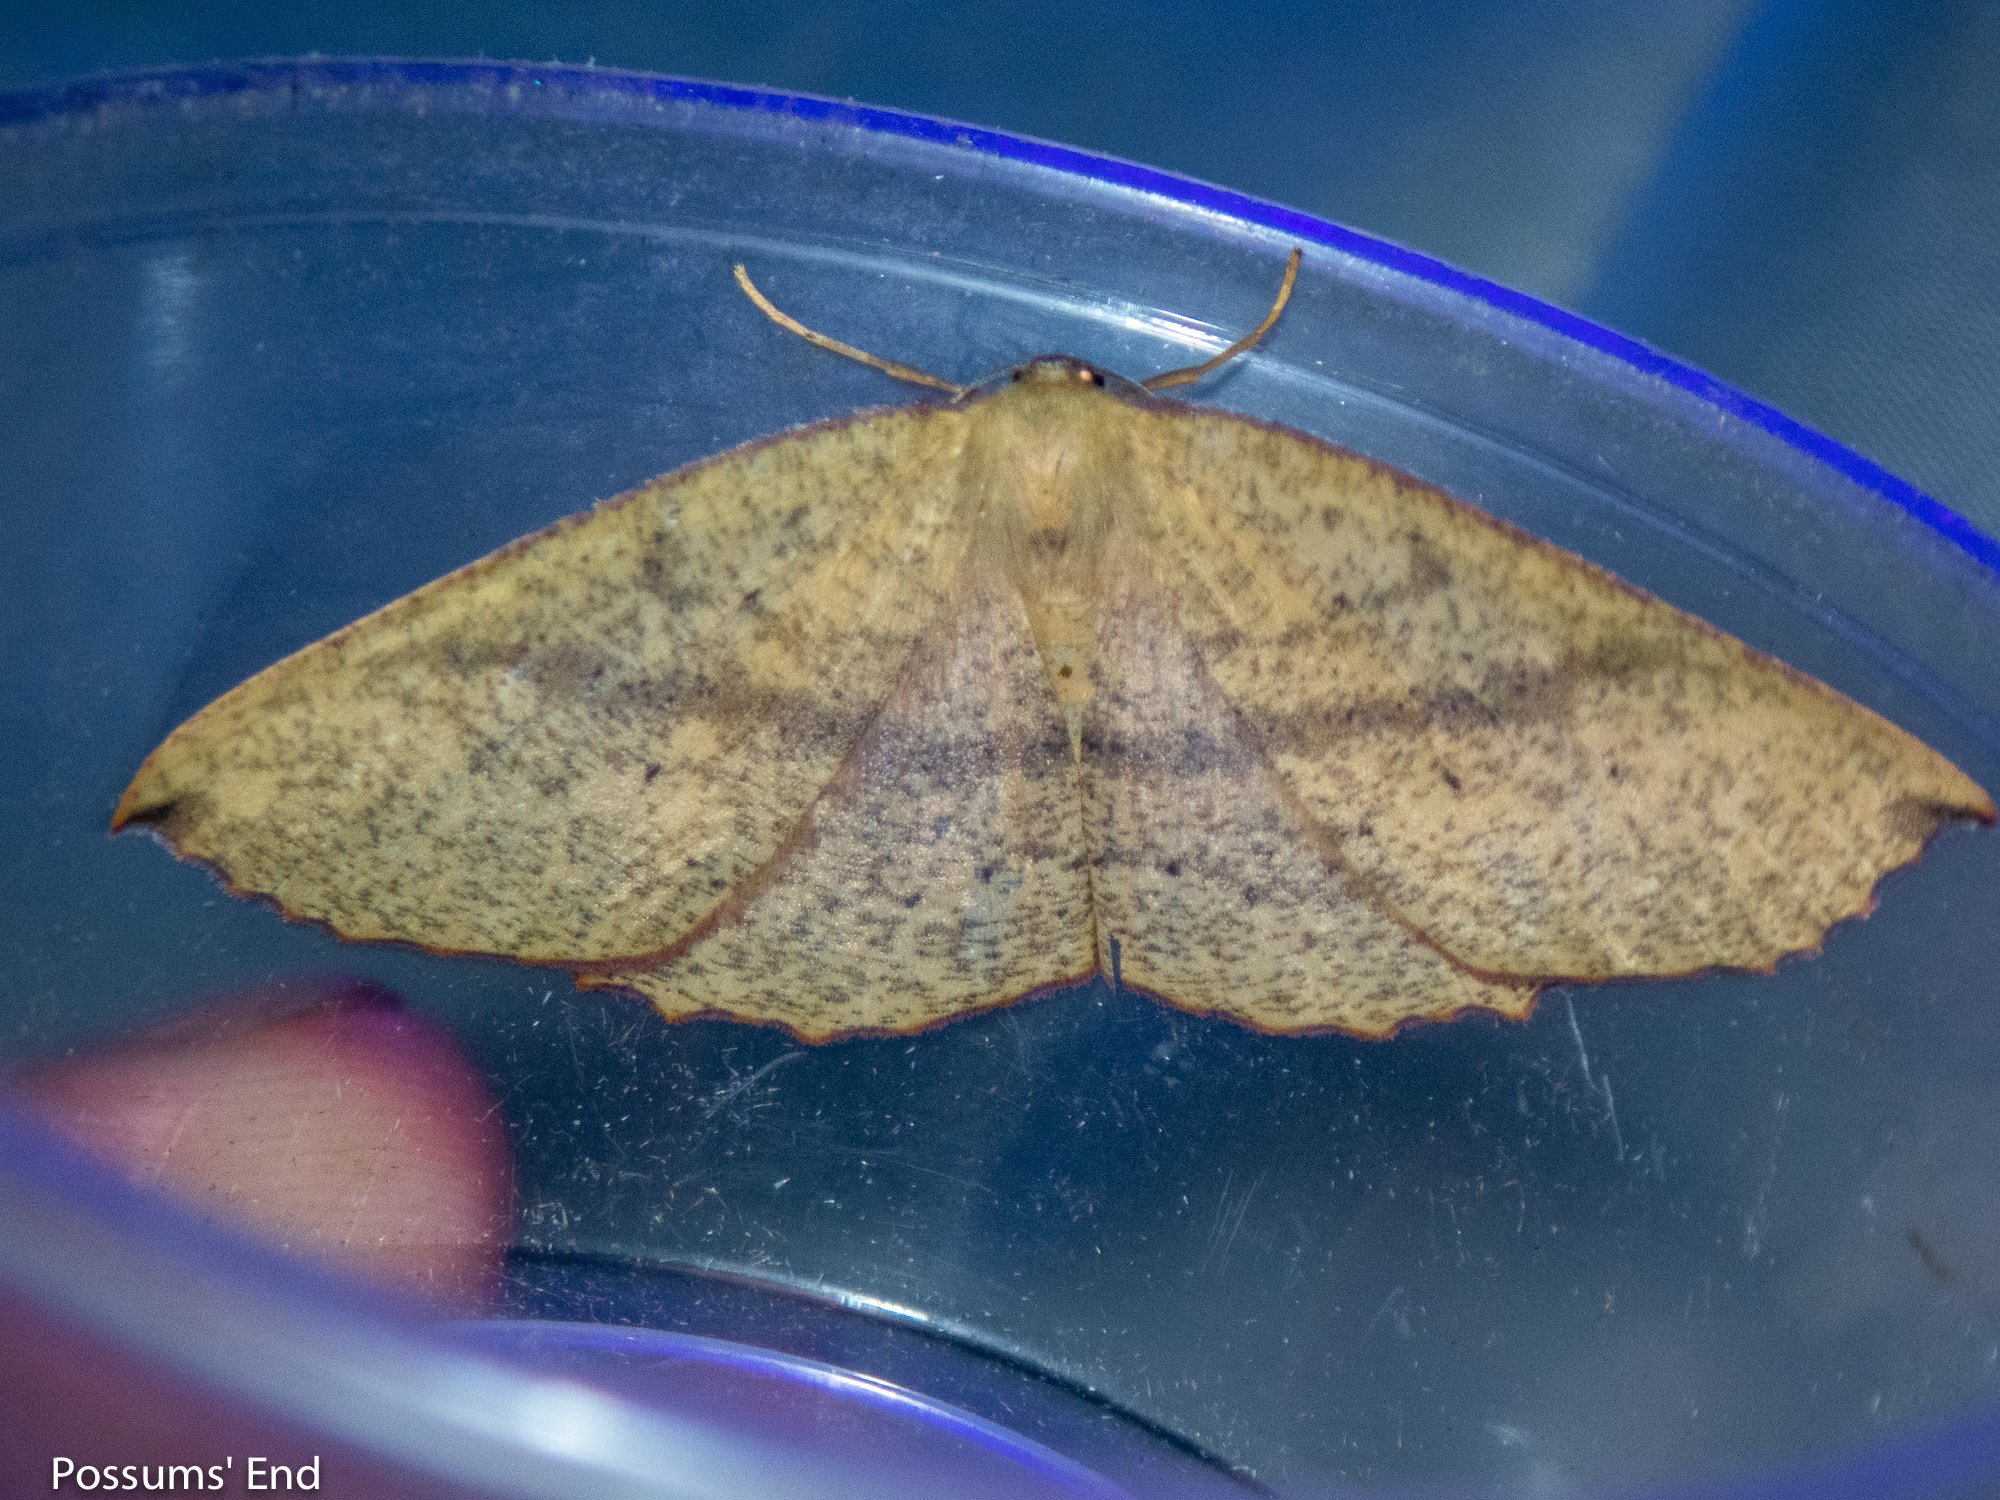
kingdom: Animalia
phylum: Arthropoda
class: Insecta
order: Lepidoptera
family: Geometridae
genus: Xyridacma
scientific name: Xyridacma alectoraria
